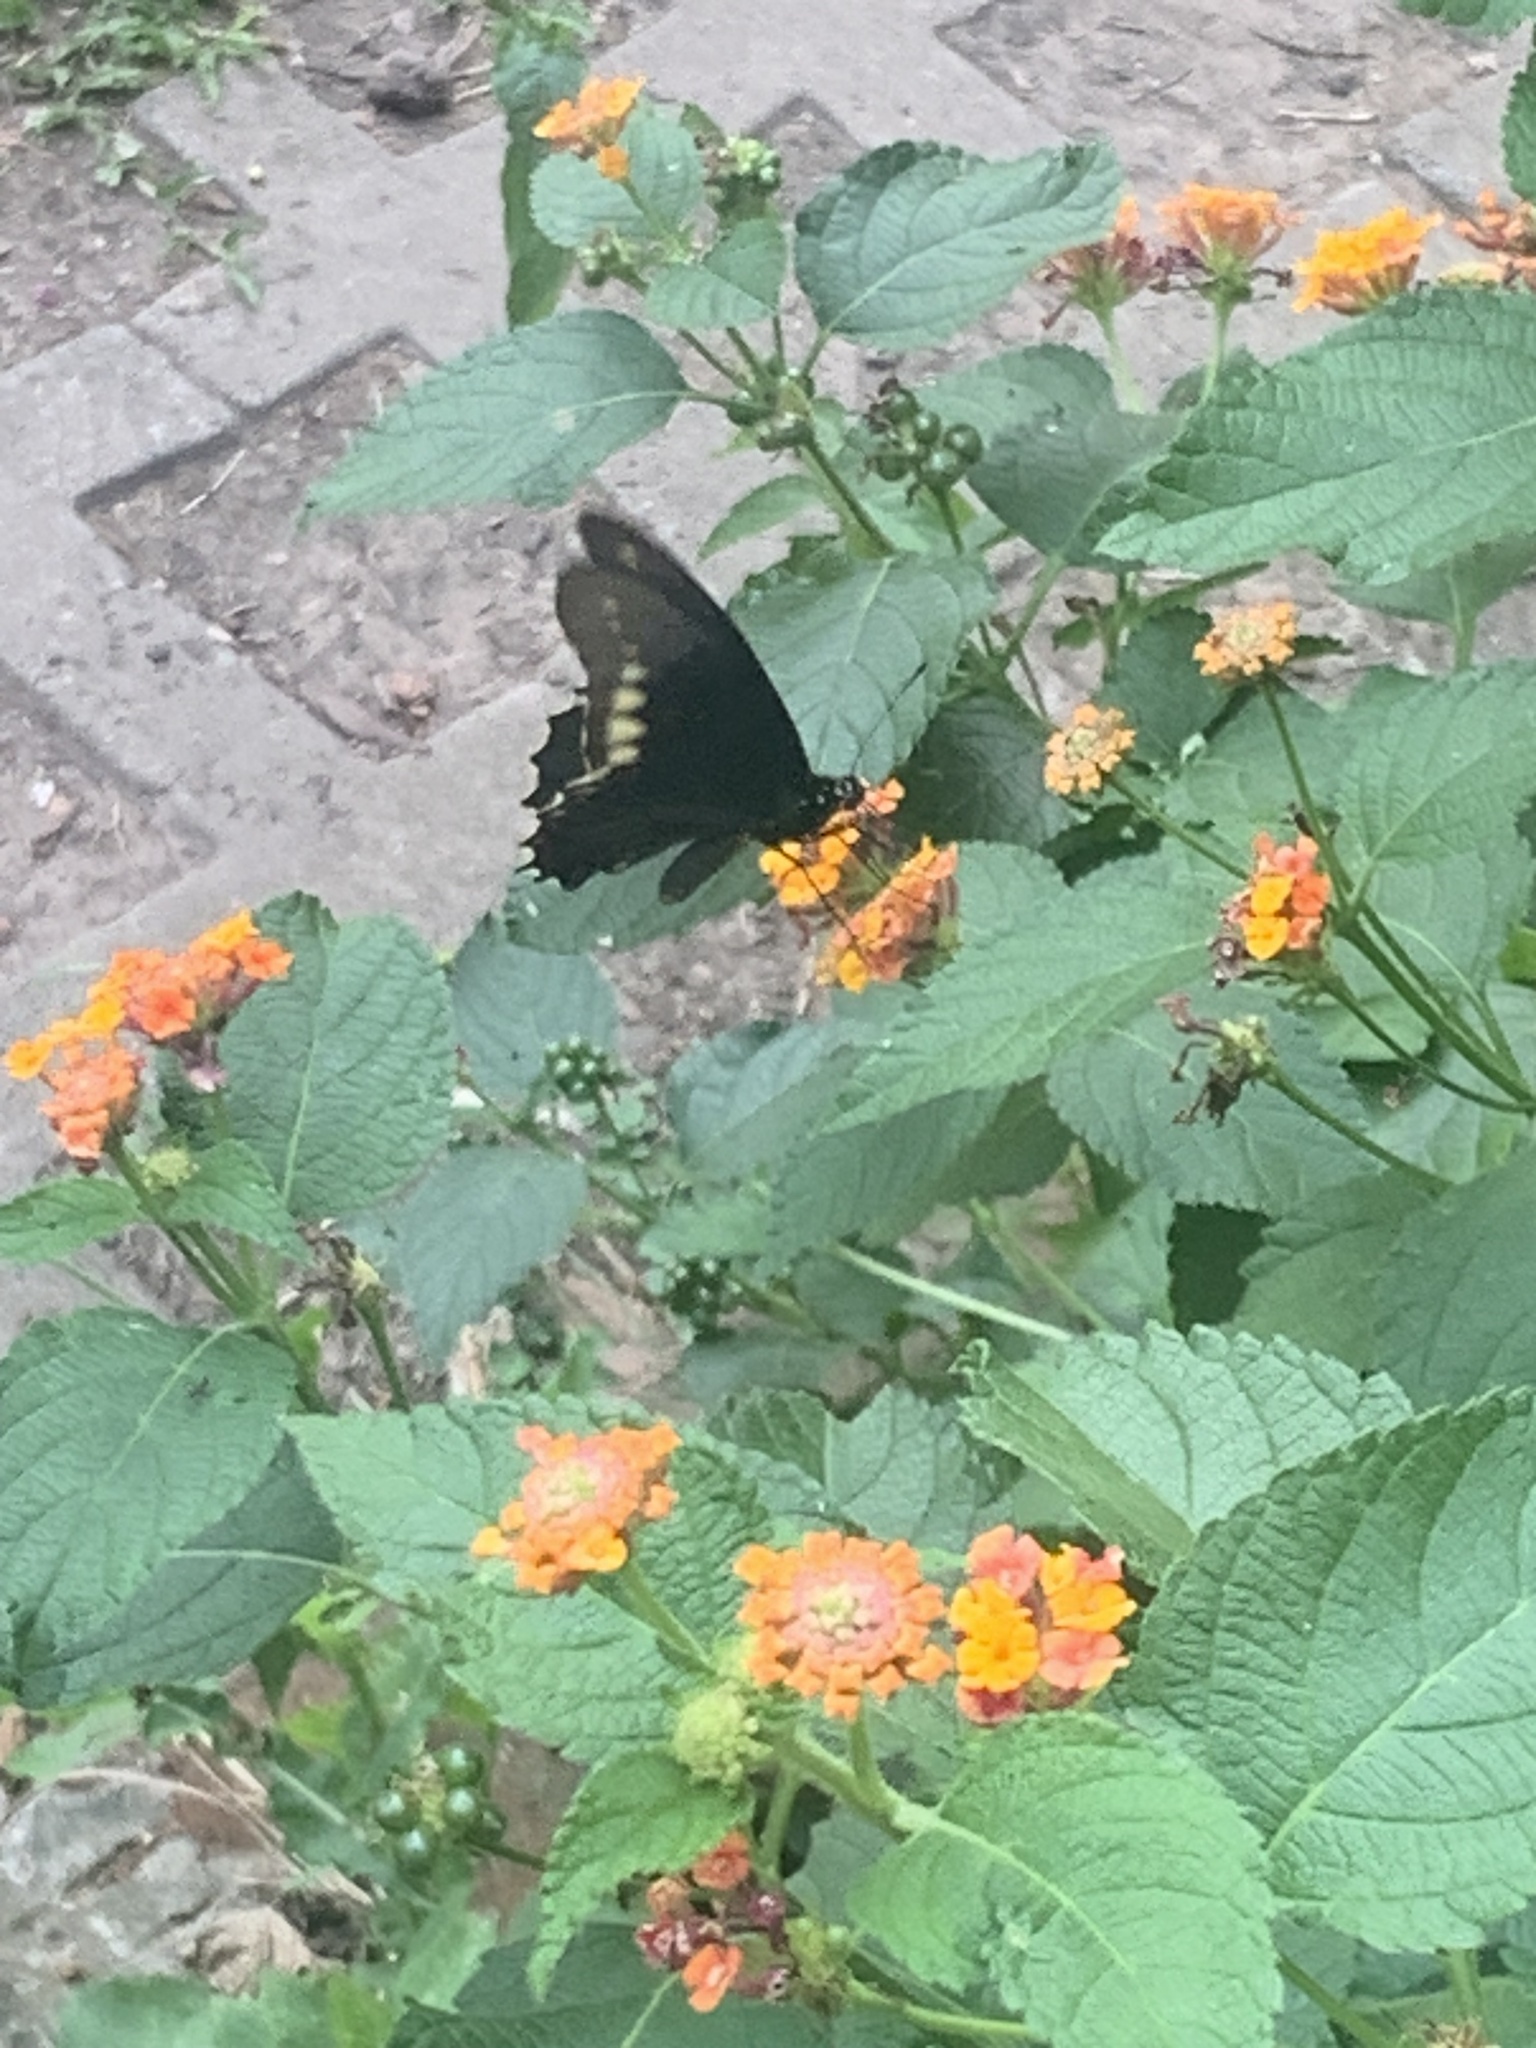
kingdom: Animalia
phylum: Arthropoda
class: Insecta
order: Lepidoptera
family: Papilionidae
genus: Battus
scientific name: Battus polydamas
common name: Polydamas swallowtail
